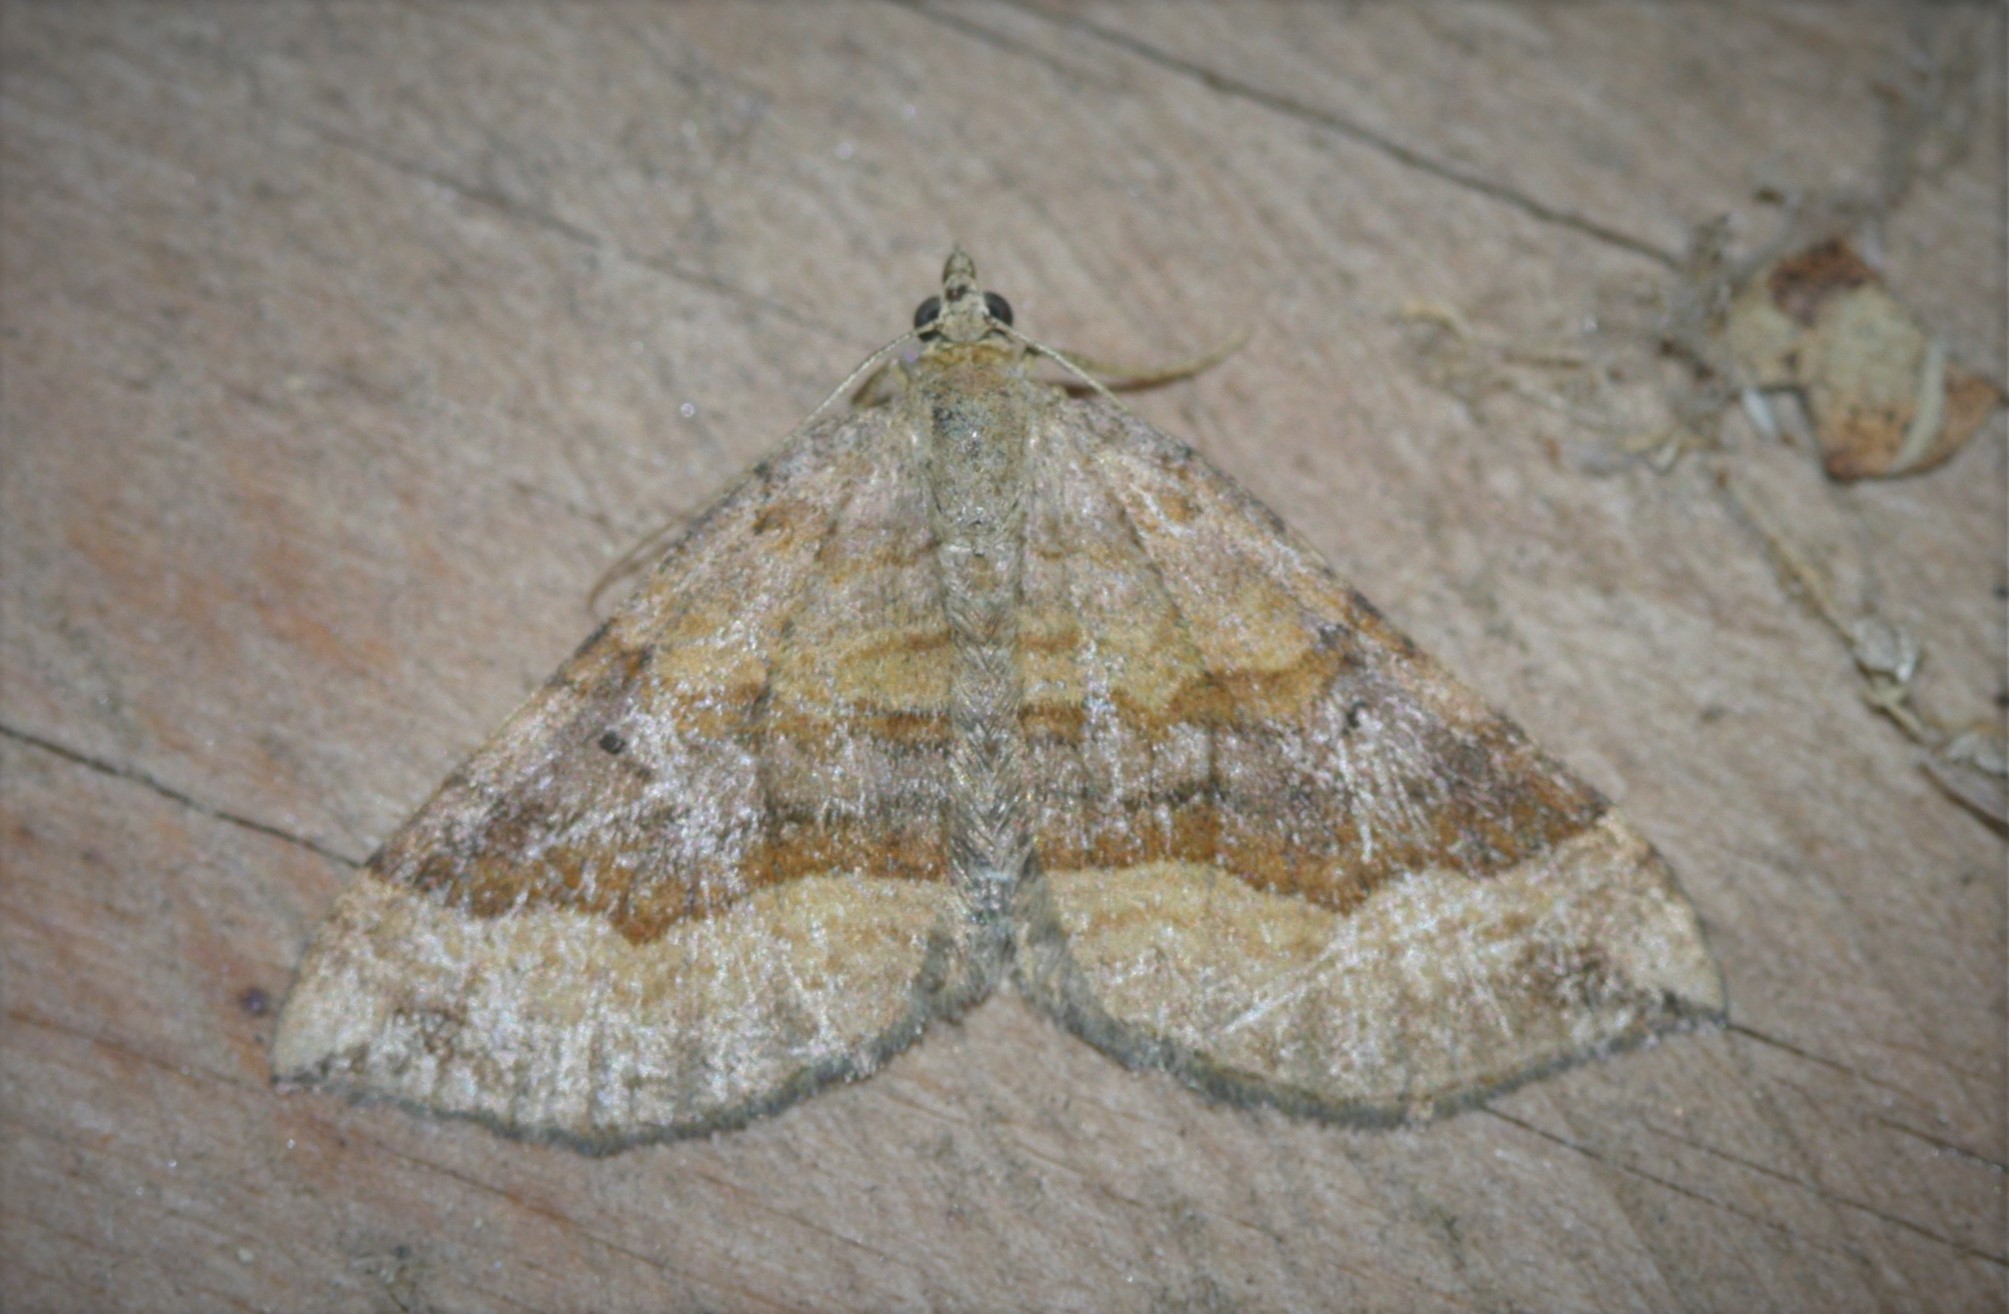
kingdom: Animalia
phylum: Arthropoda
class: Insecta
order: Lepidoptera
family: Geometridae
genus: Scotopteryx
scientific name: Scotopteryx chenopodiata
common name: Shaded broad-bar
